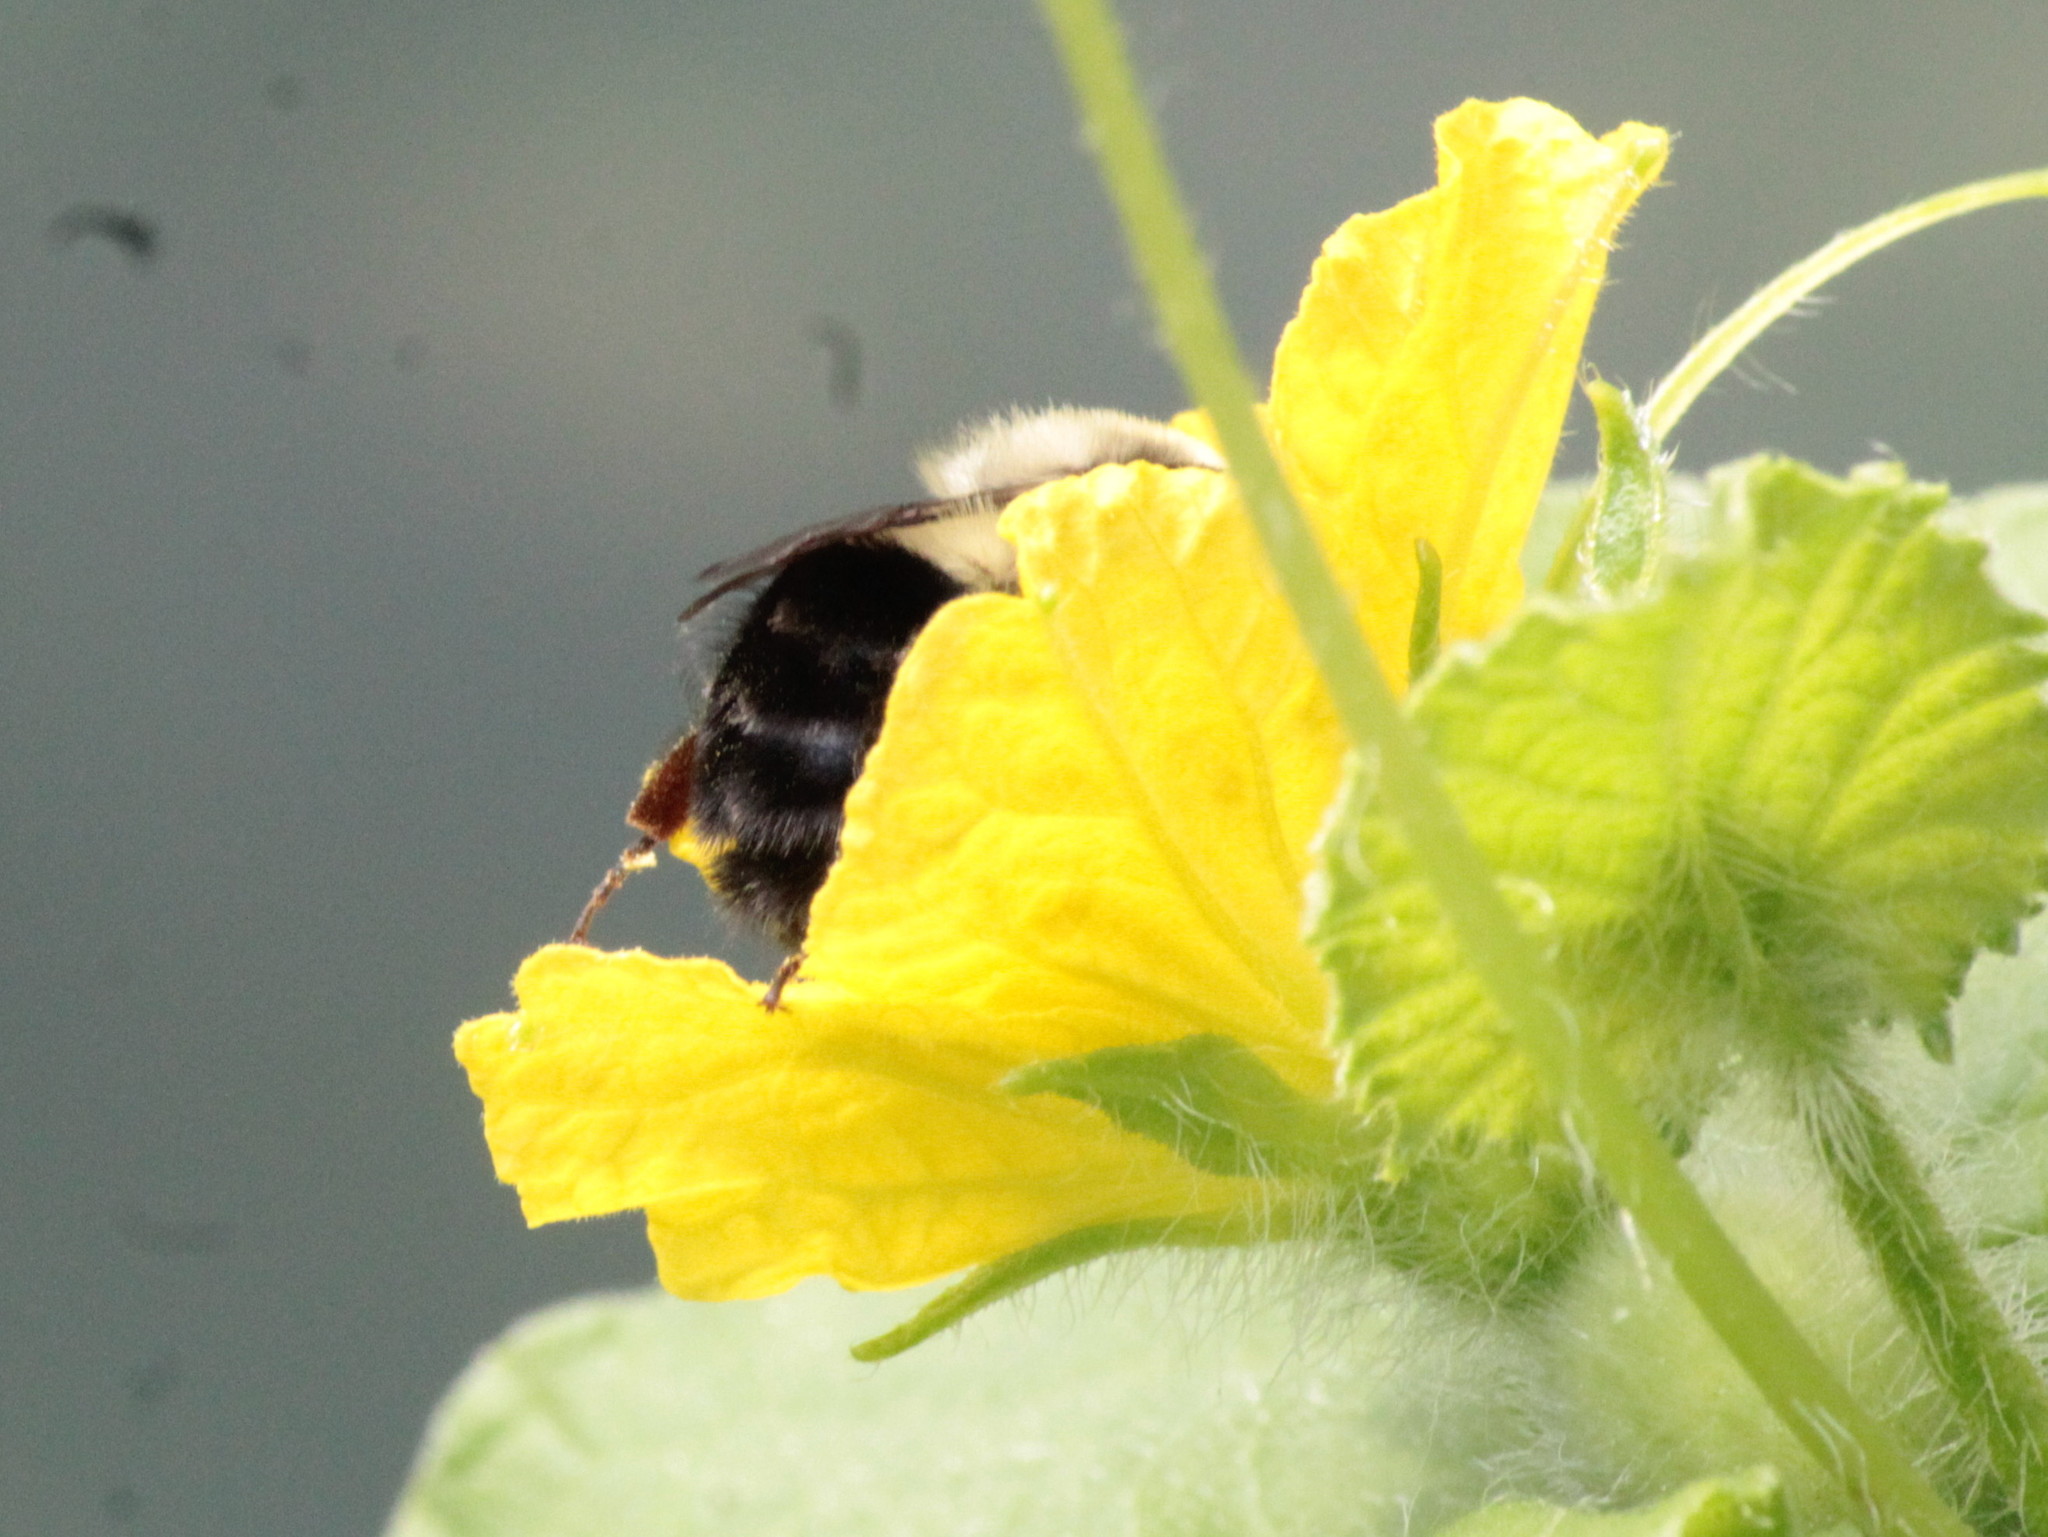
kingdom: Animalia
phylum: Arthropoda
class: Insecta
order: Hymenoptera
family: Apidae
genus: Bombus
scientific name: Bombus impatiens
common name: Common eastern bumble bee
